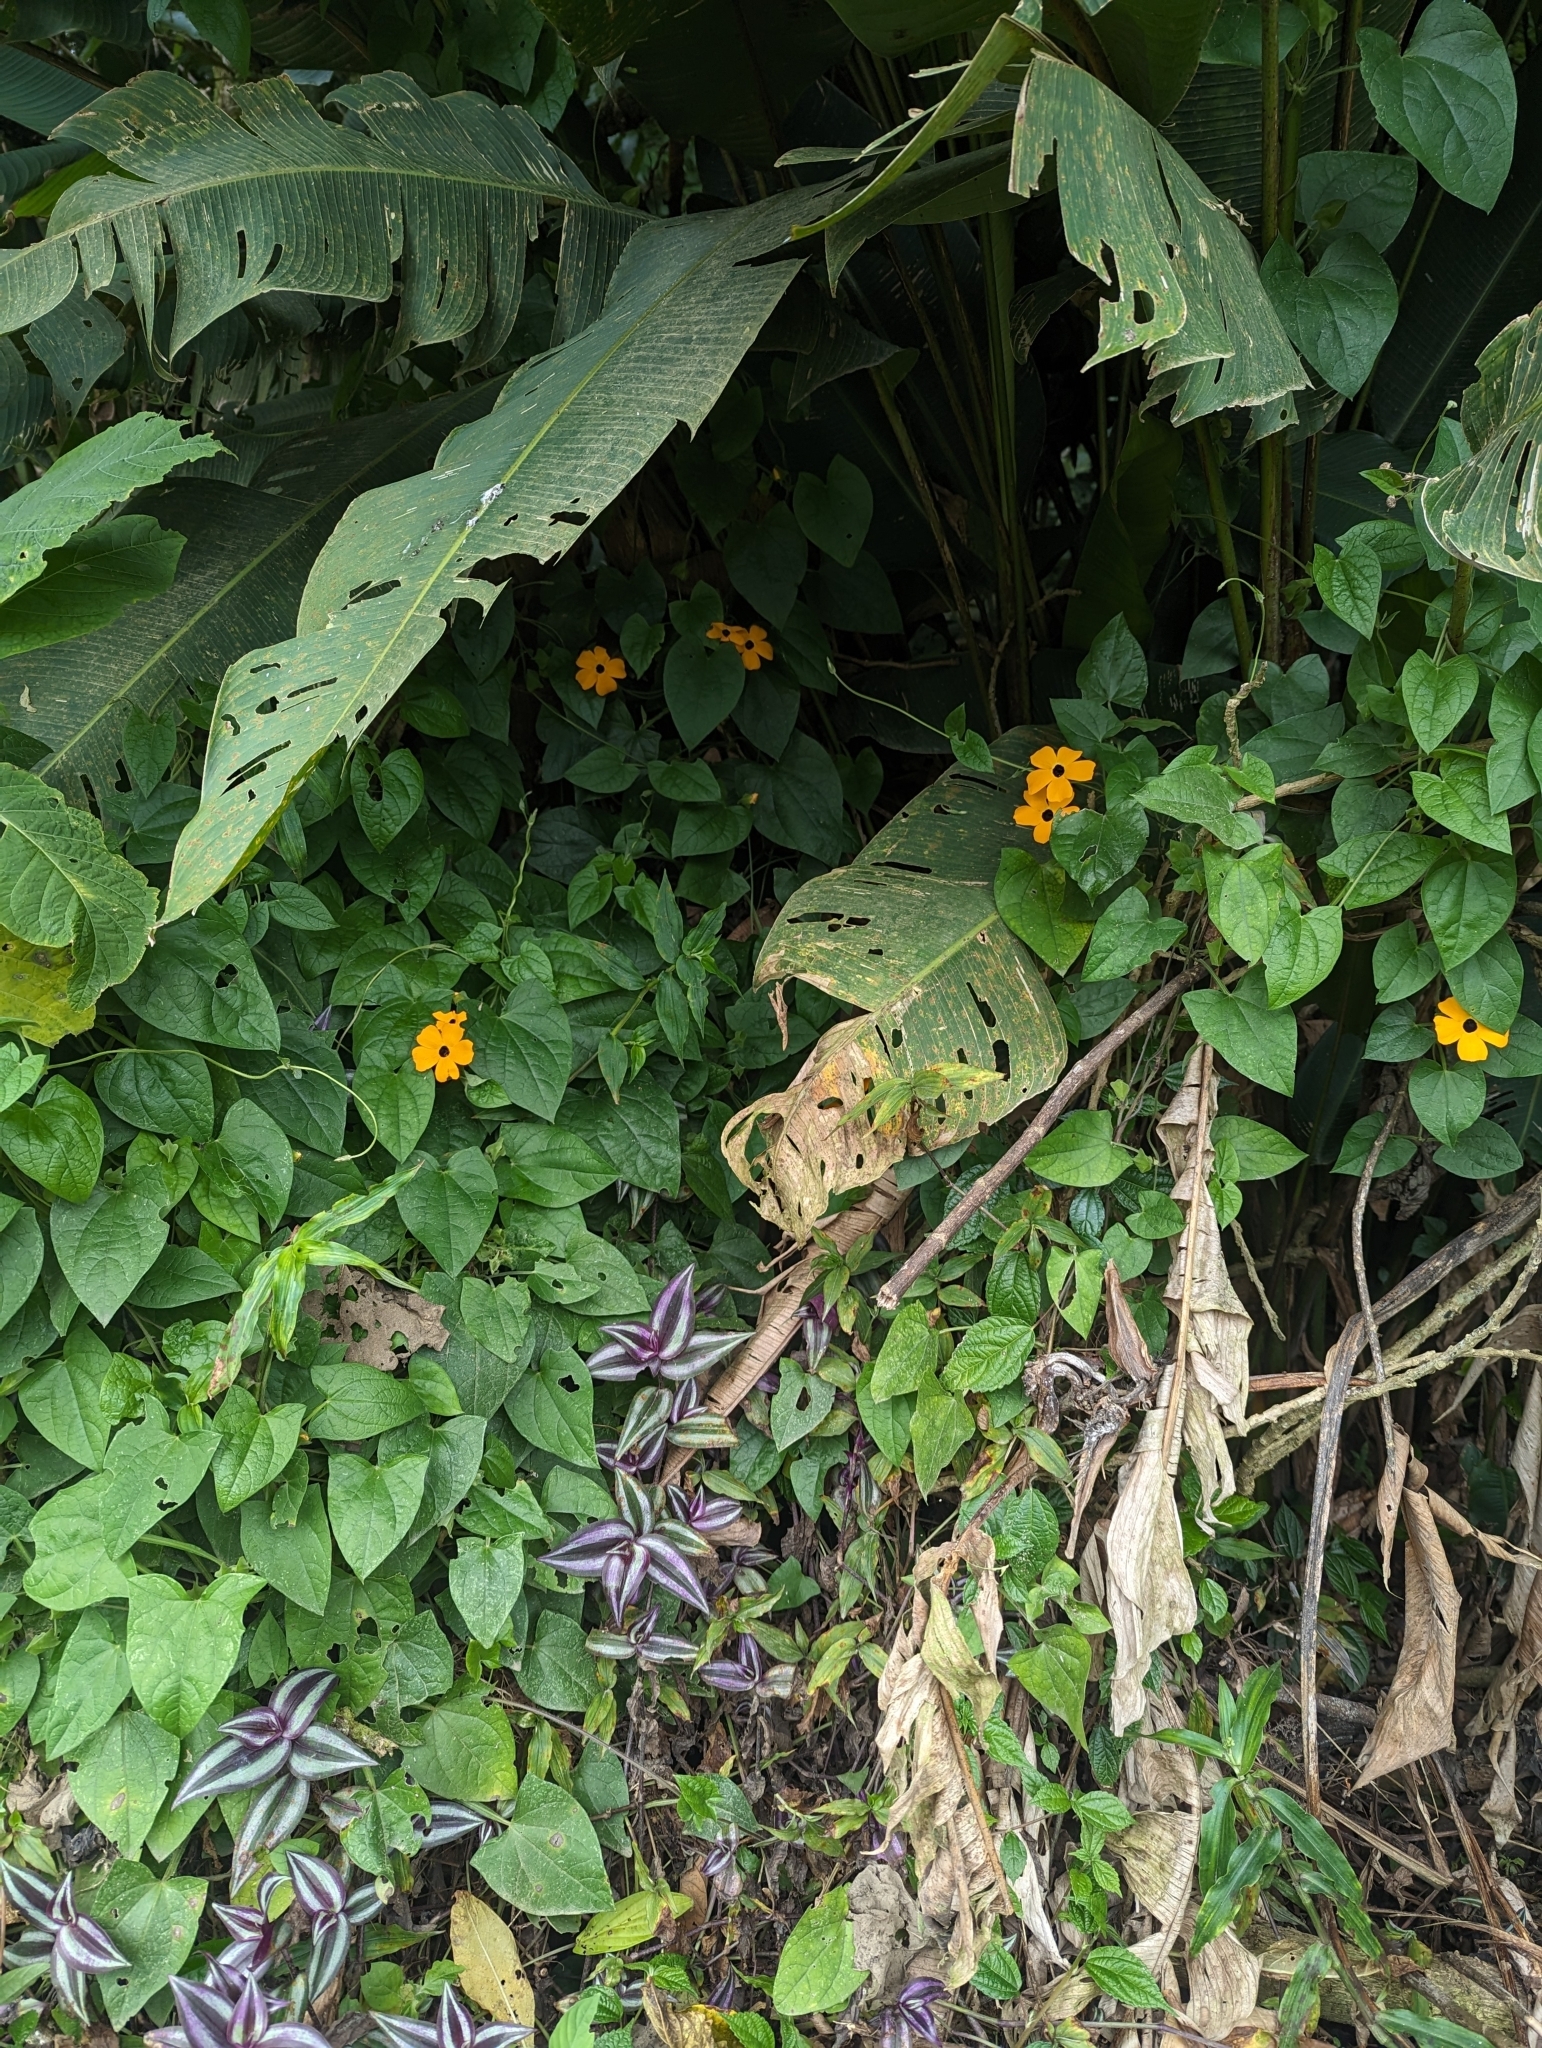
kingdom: Plantae
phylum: Tracheophyta
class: Magnoliopsida
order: Lamiales
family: Acanthaceae
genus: Thunbergia
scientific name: Thunbergia alata
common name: Blackeyed susan vine
